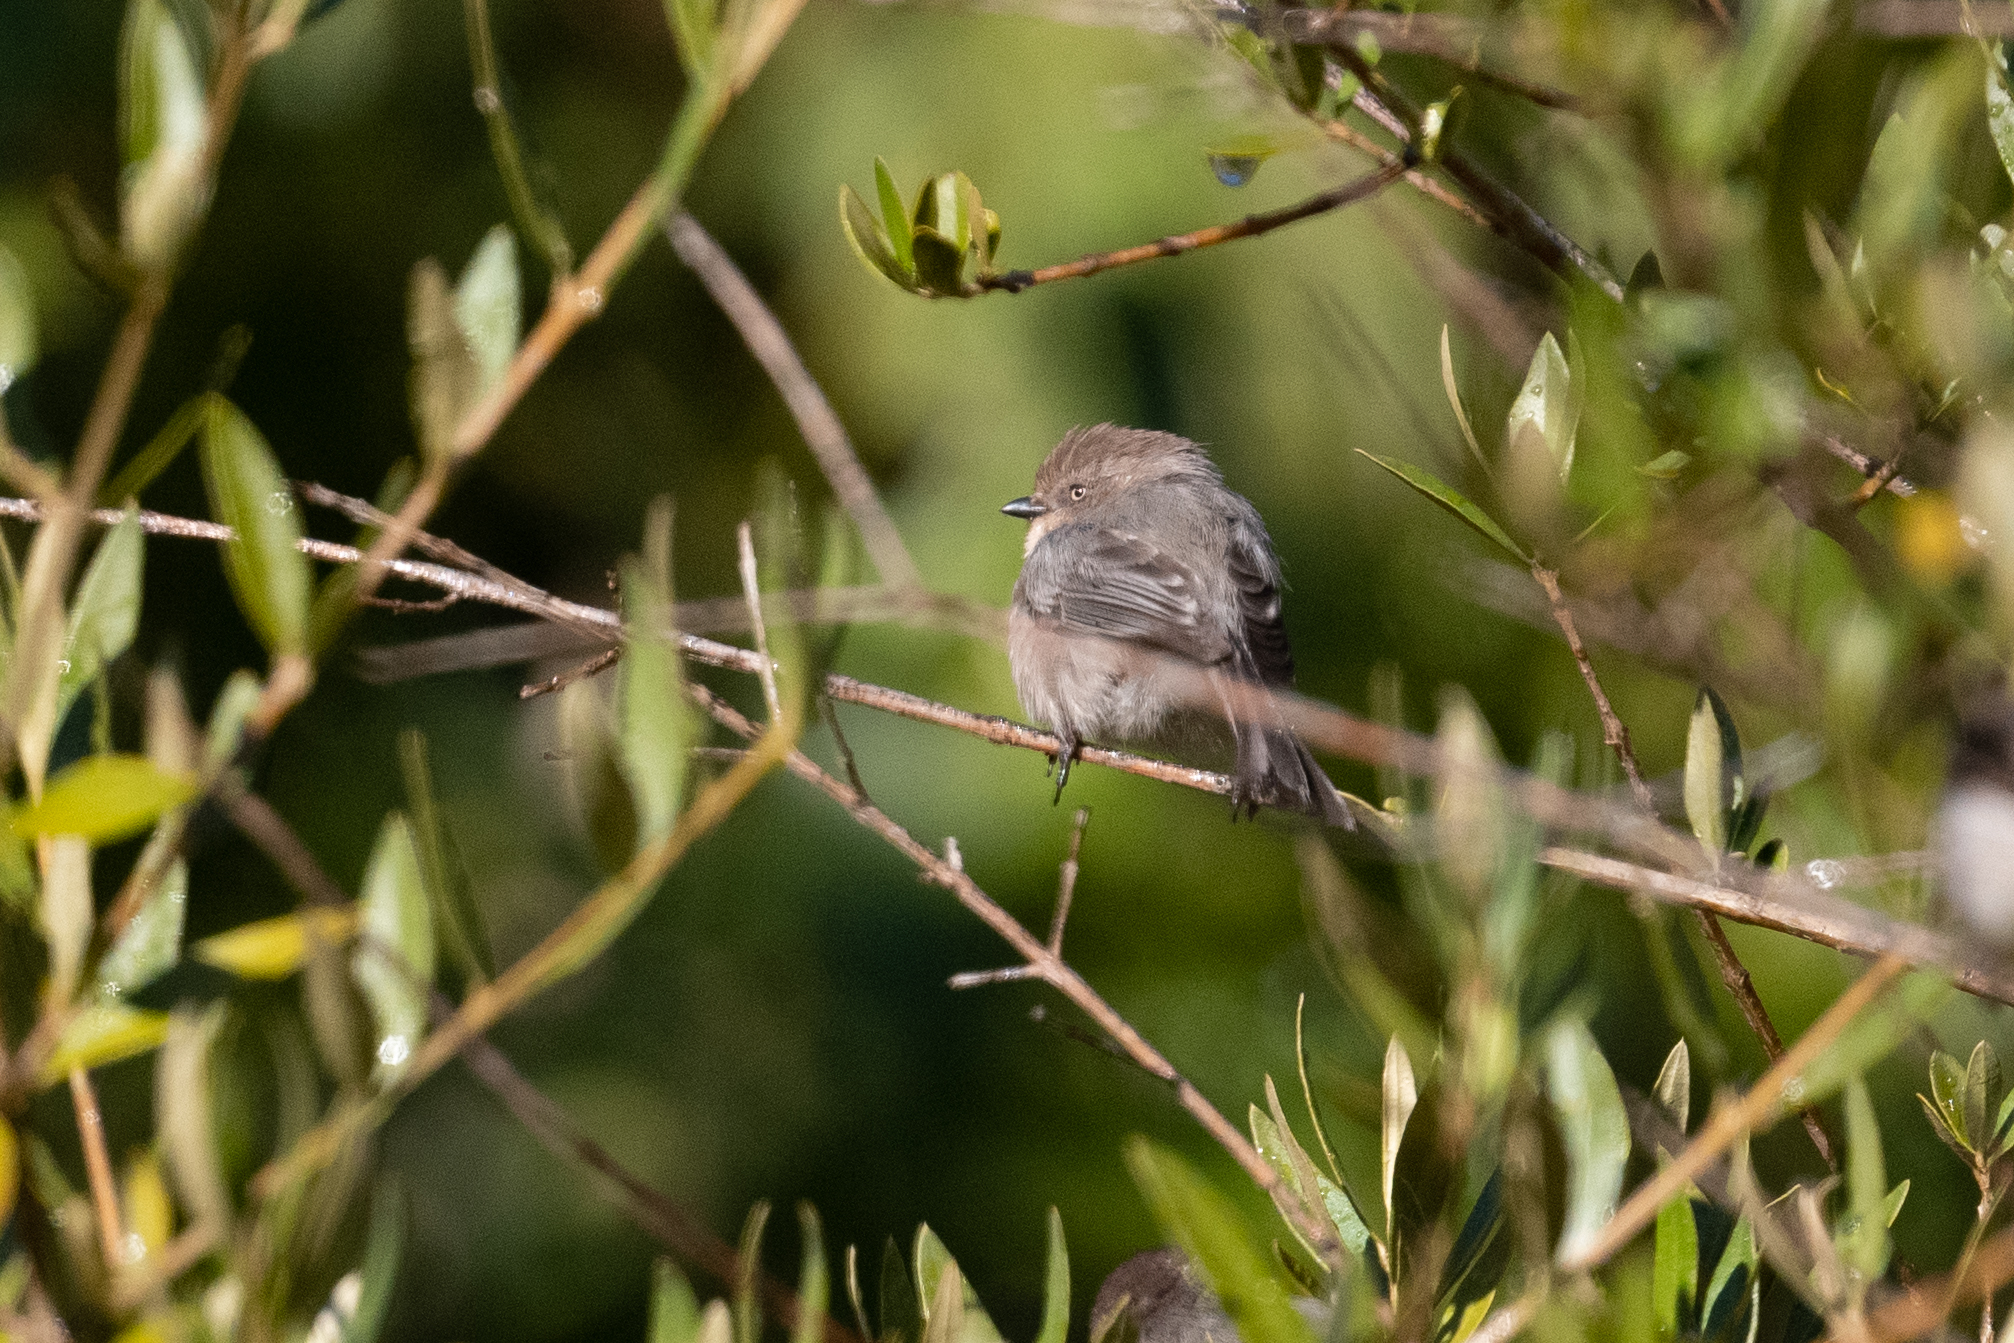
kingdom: Animalia
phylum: Chordata
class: Aves
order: Passeriformes
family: Aegithalidae
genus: Psaltriparus
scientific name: Psaltriparus minimus
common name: American bushtit
